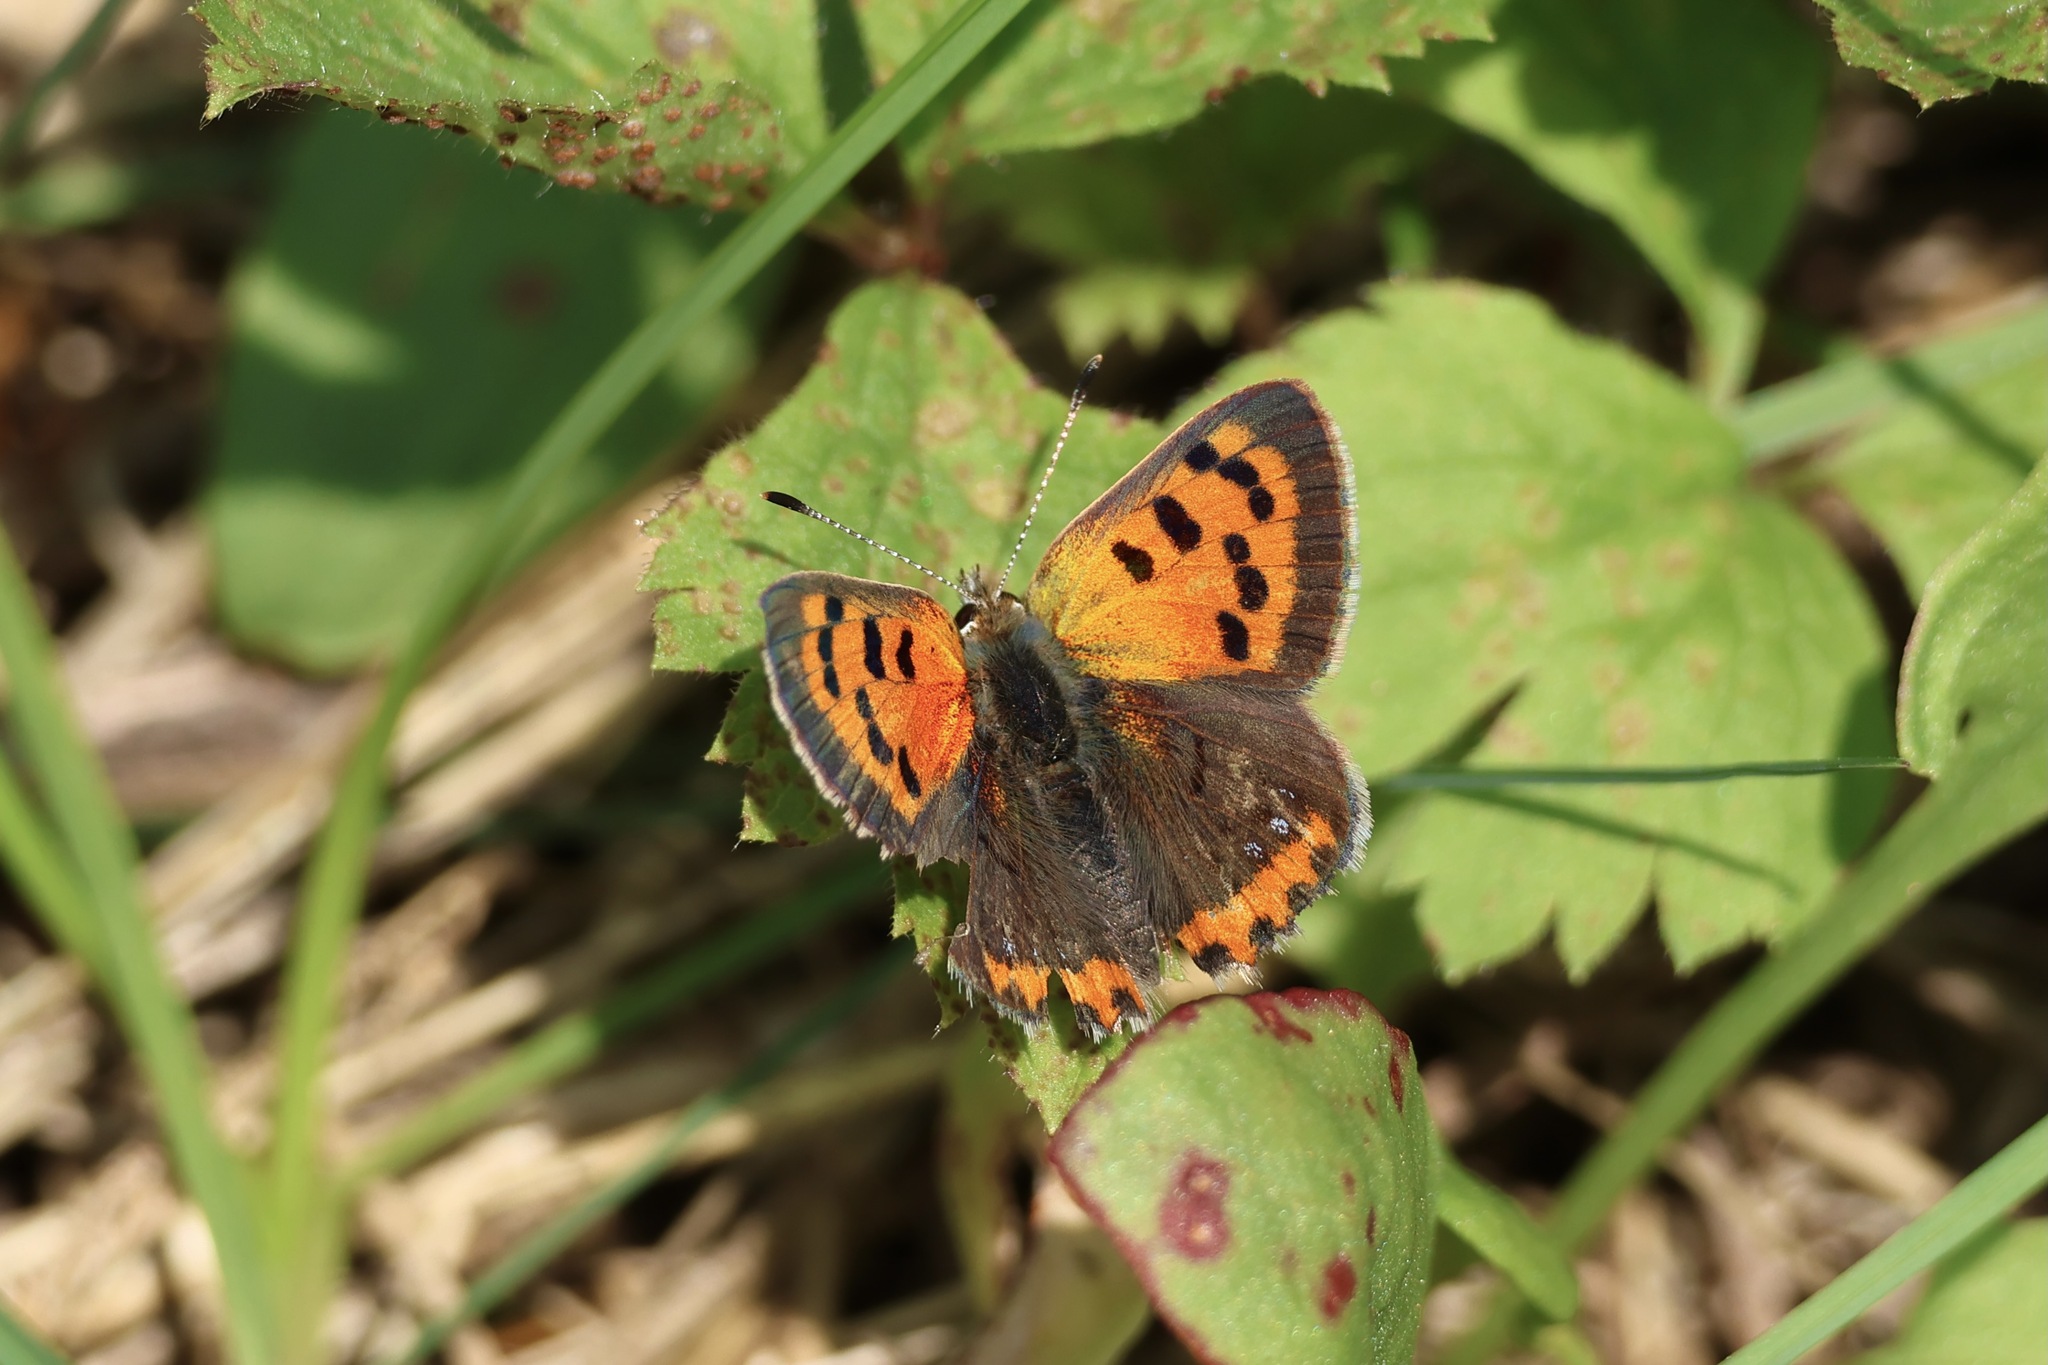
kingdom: Animalia
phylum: Arthropoda
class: Insecta
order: Lepidoptera
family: Lycaenidae
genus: Lycaena
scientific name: Lycaena hypophlaeas
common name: American copper
